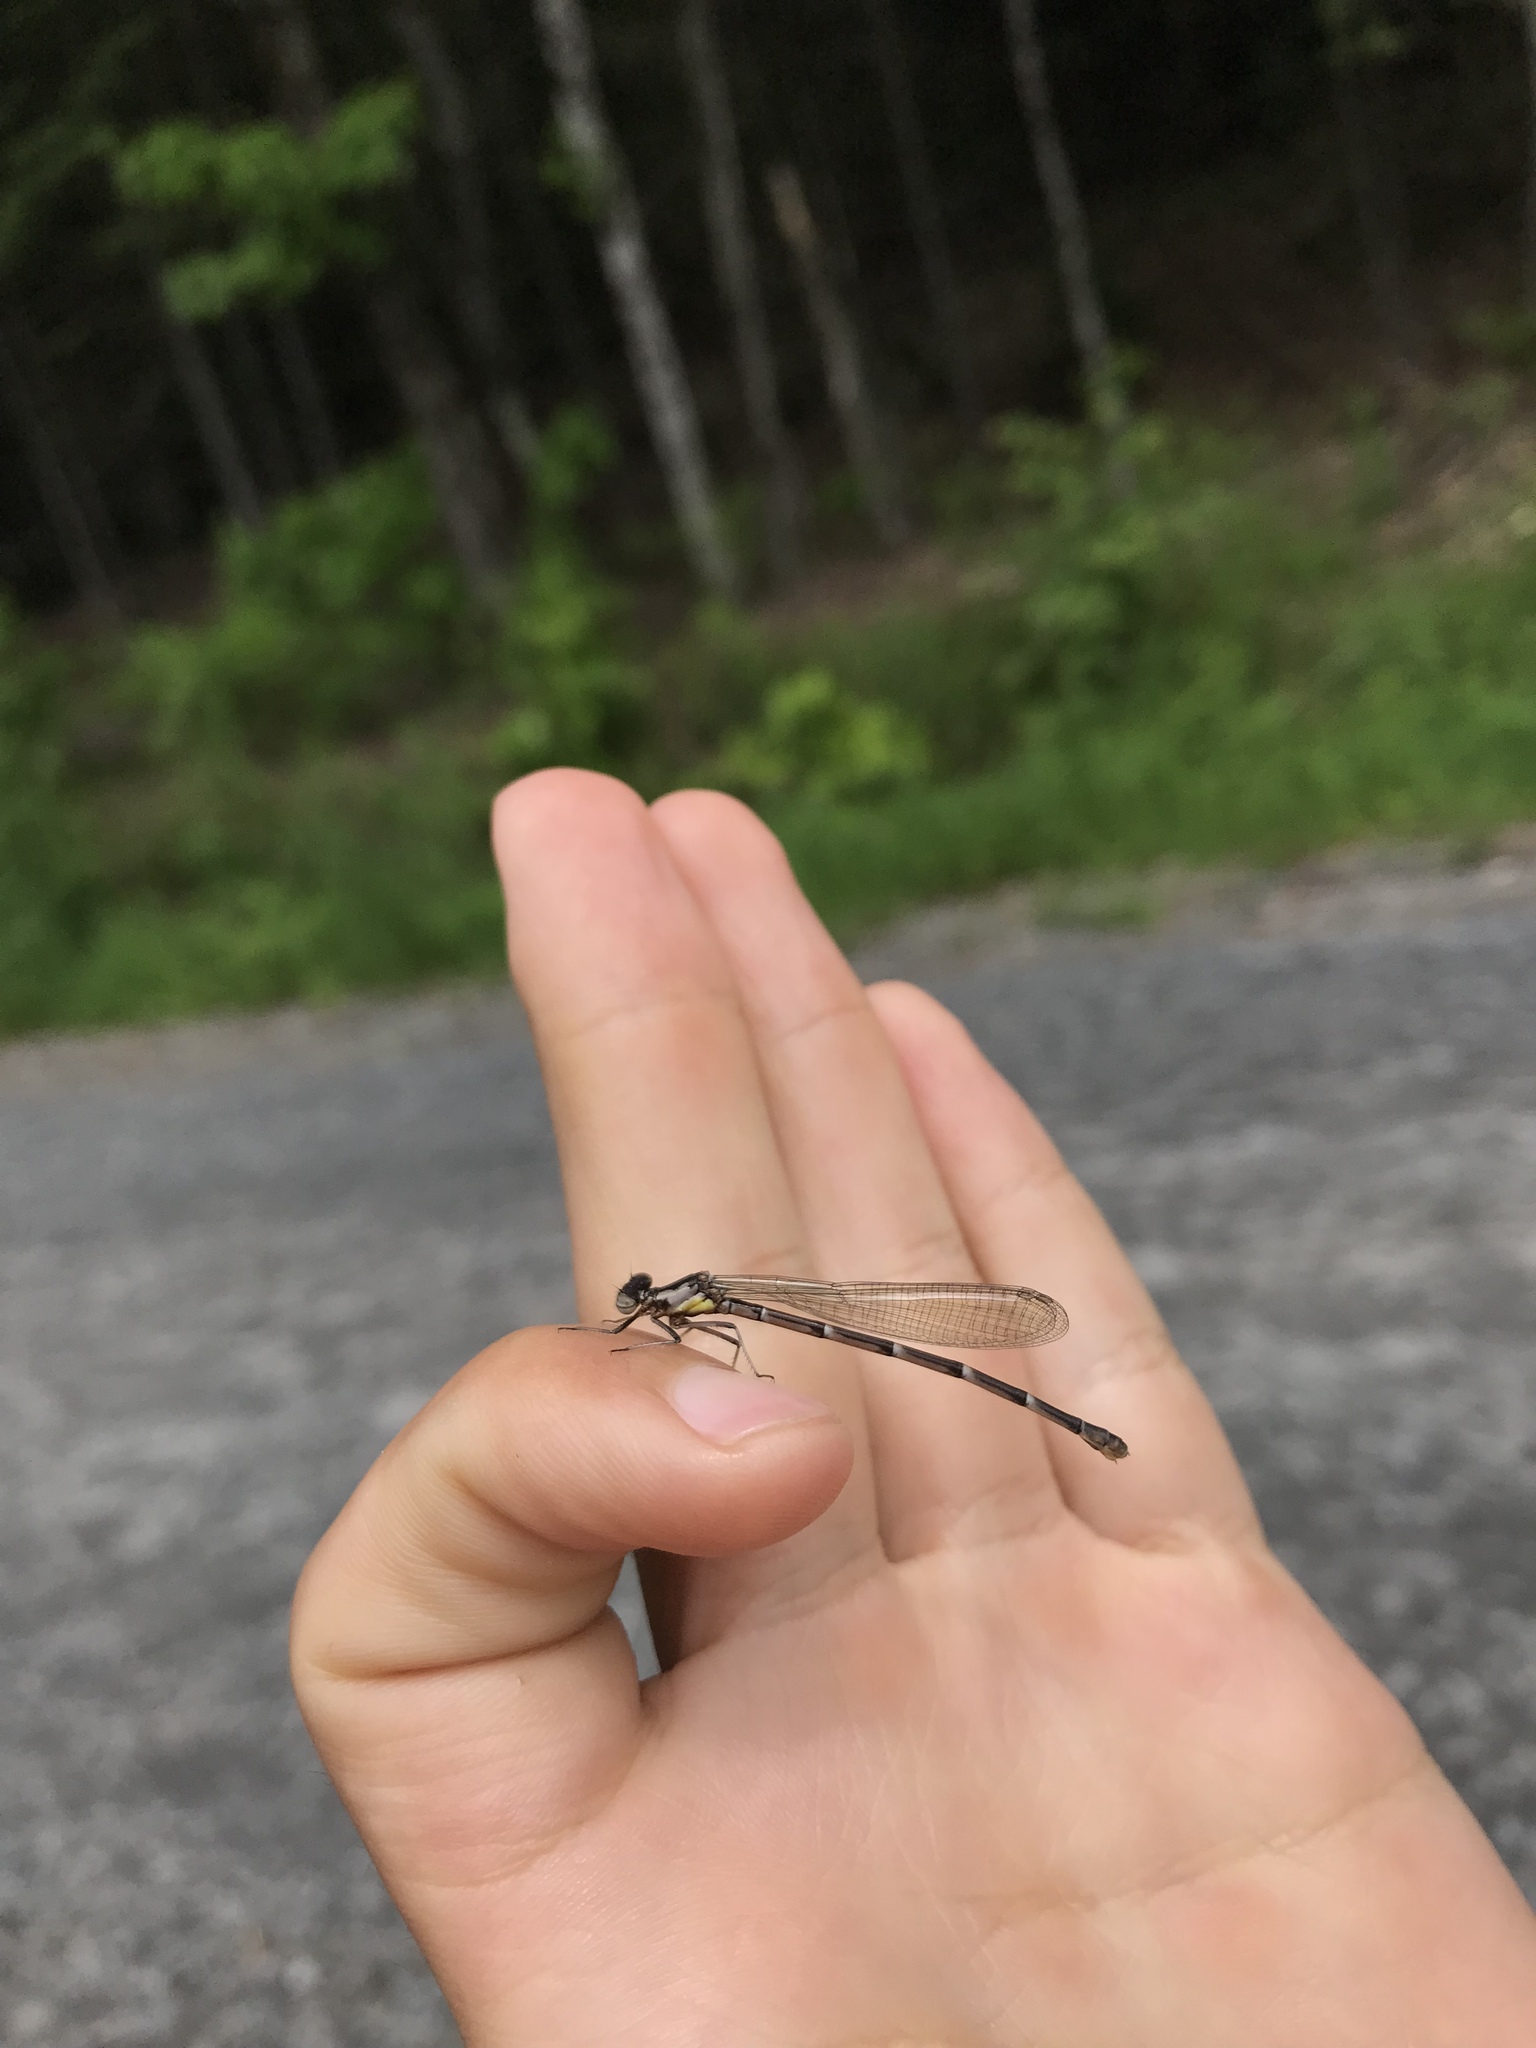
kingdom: Animalia
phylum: Arthropoda
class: Insecta
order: Odonata
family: Coenagrionidae
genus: Chromagrion
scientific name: Chromagrion conditum
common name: Aurora damsel
